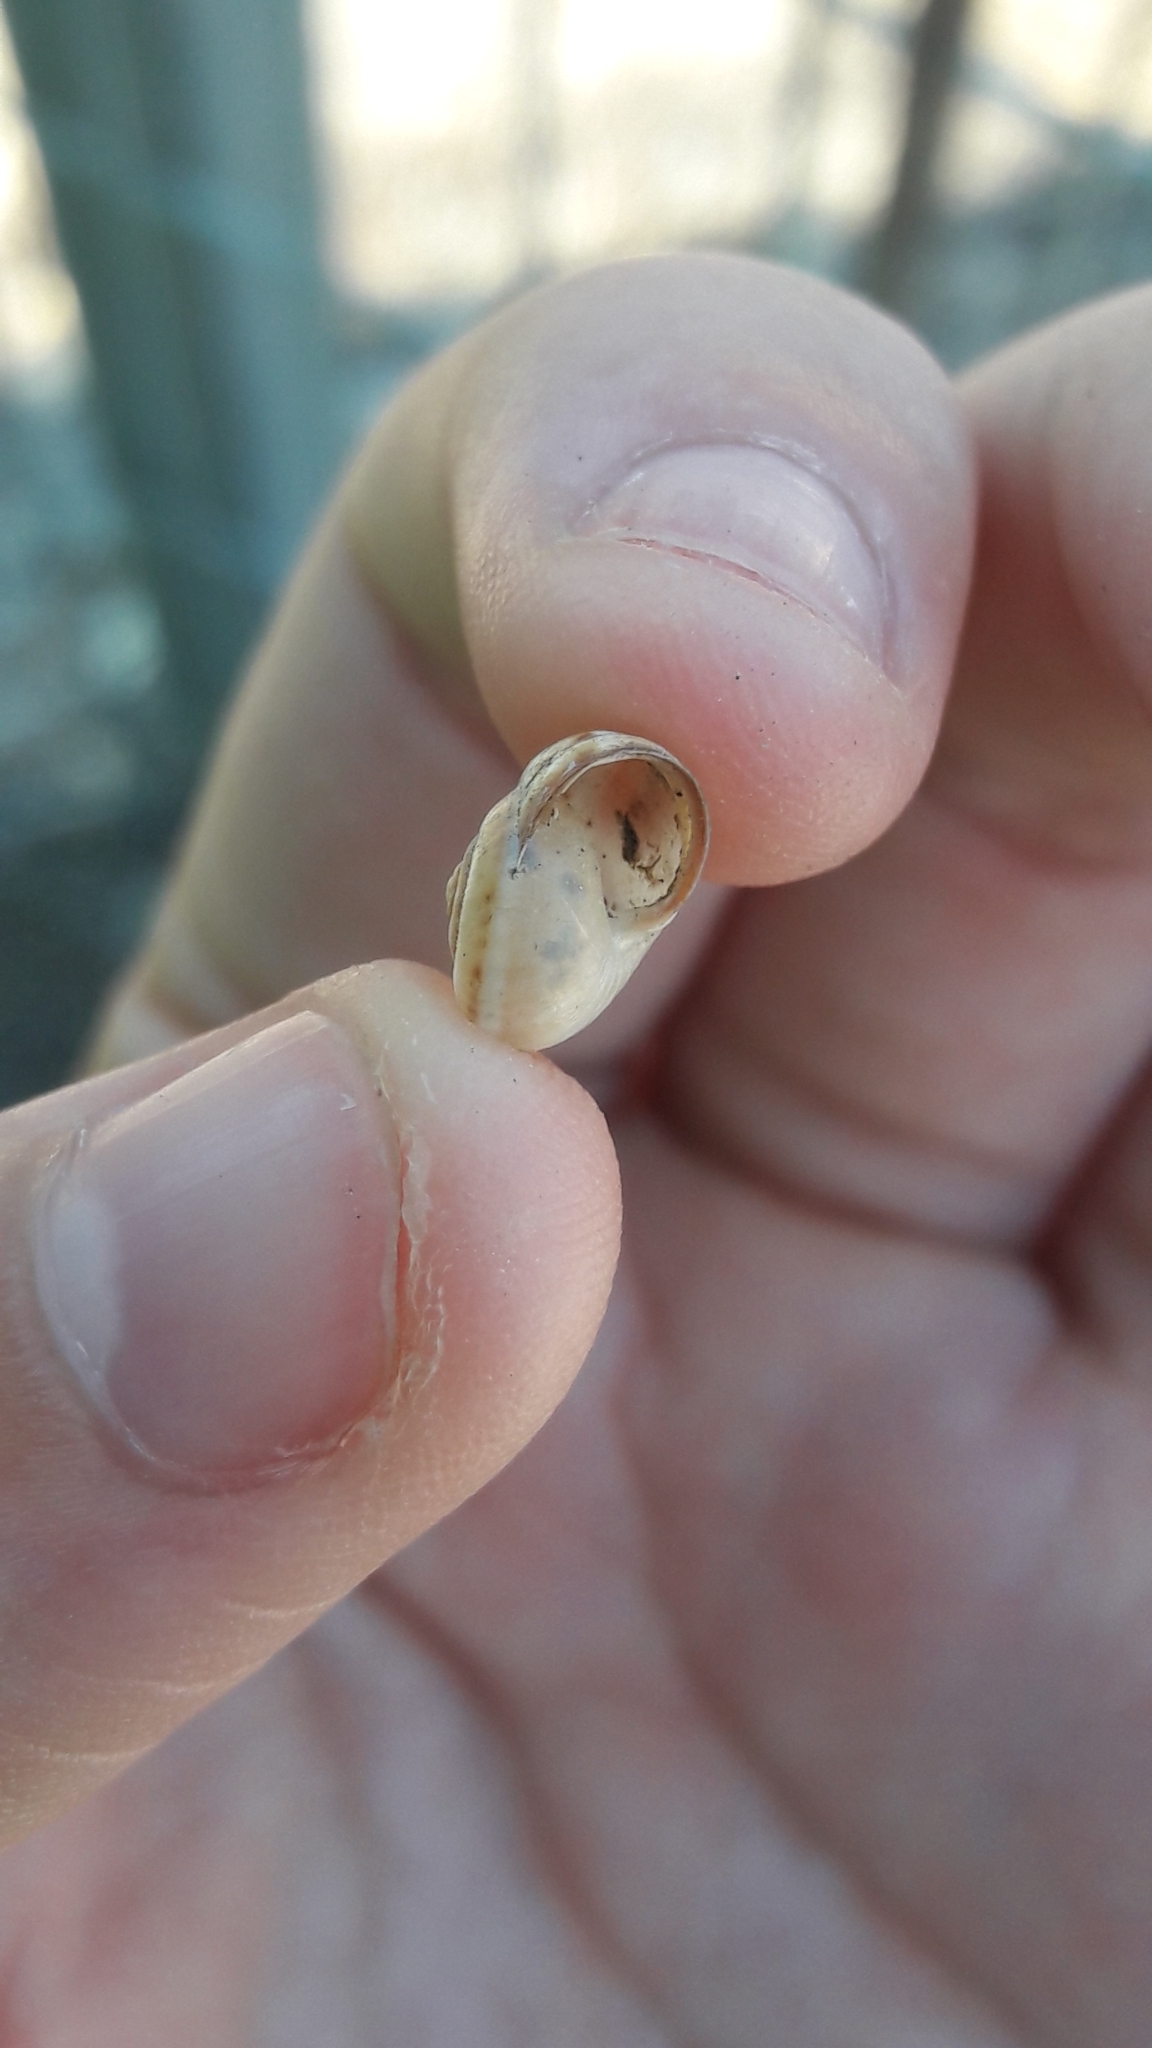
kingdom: Animalia
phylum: Mollusca
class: Gastropoda
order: Stylommatophora
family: Hygromiidae
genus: Monacha
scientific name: Monacha syriaca
